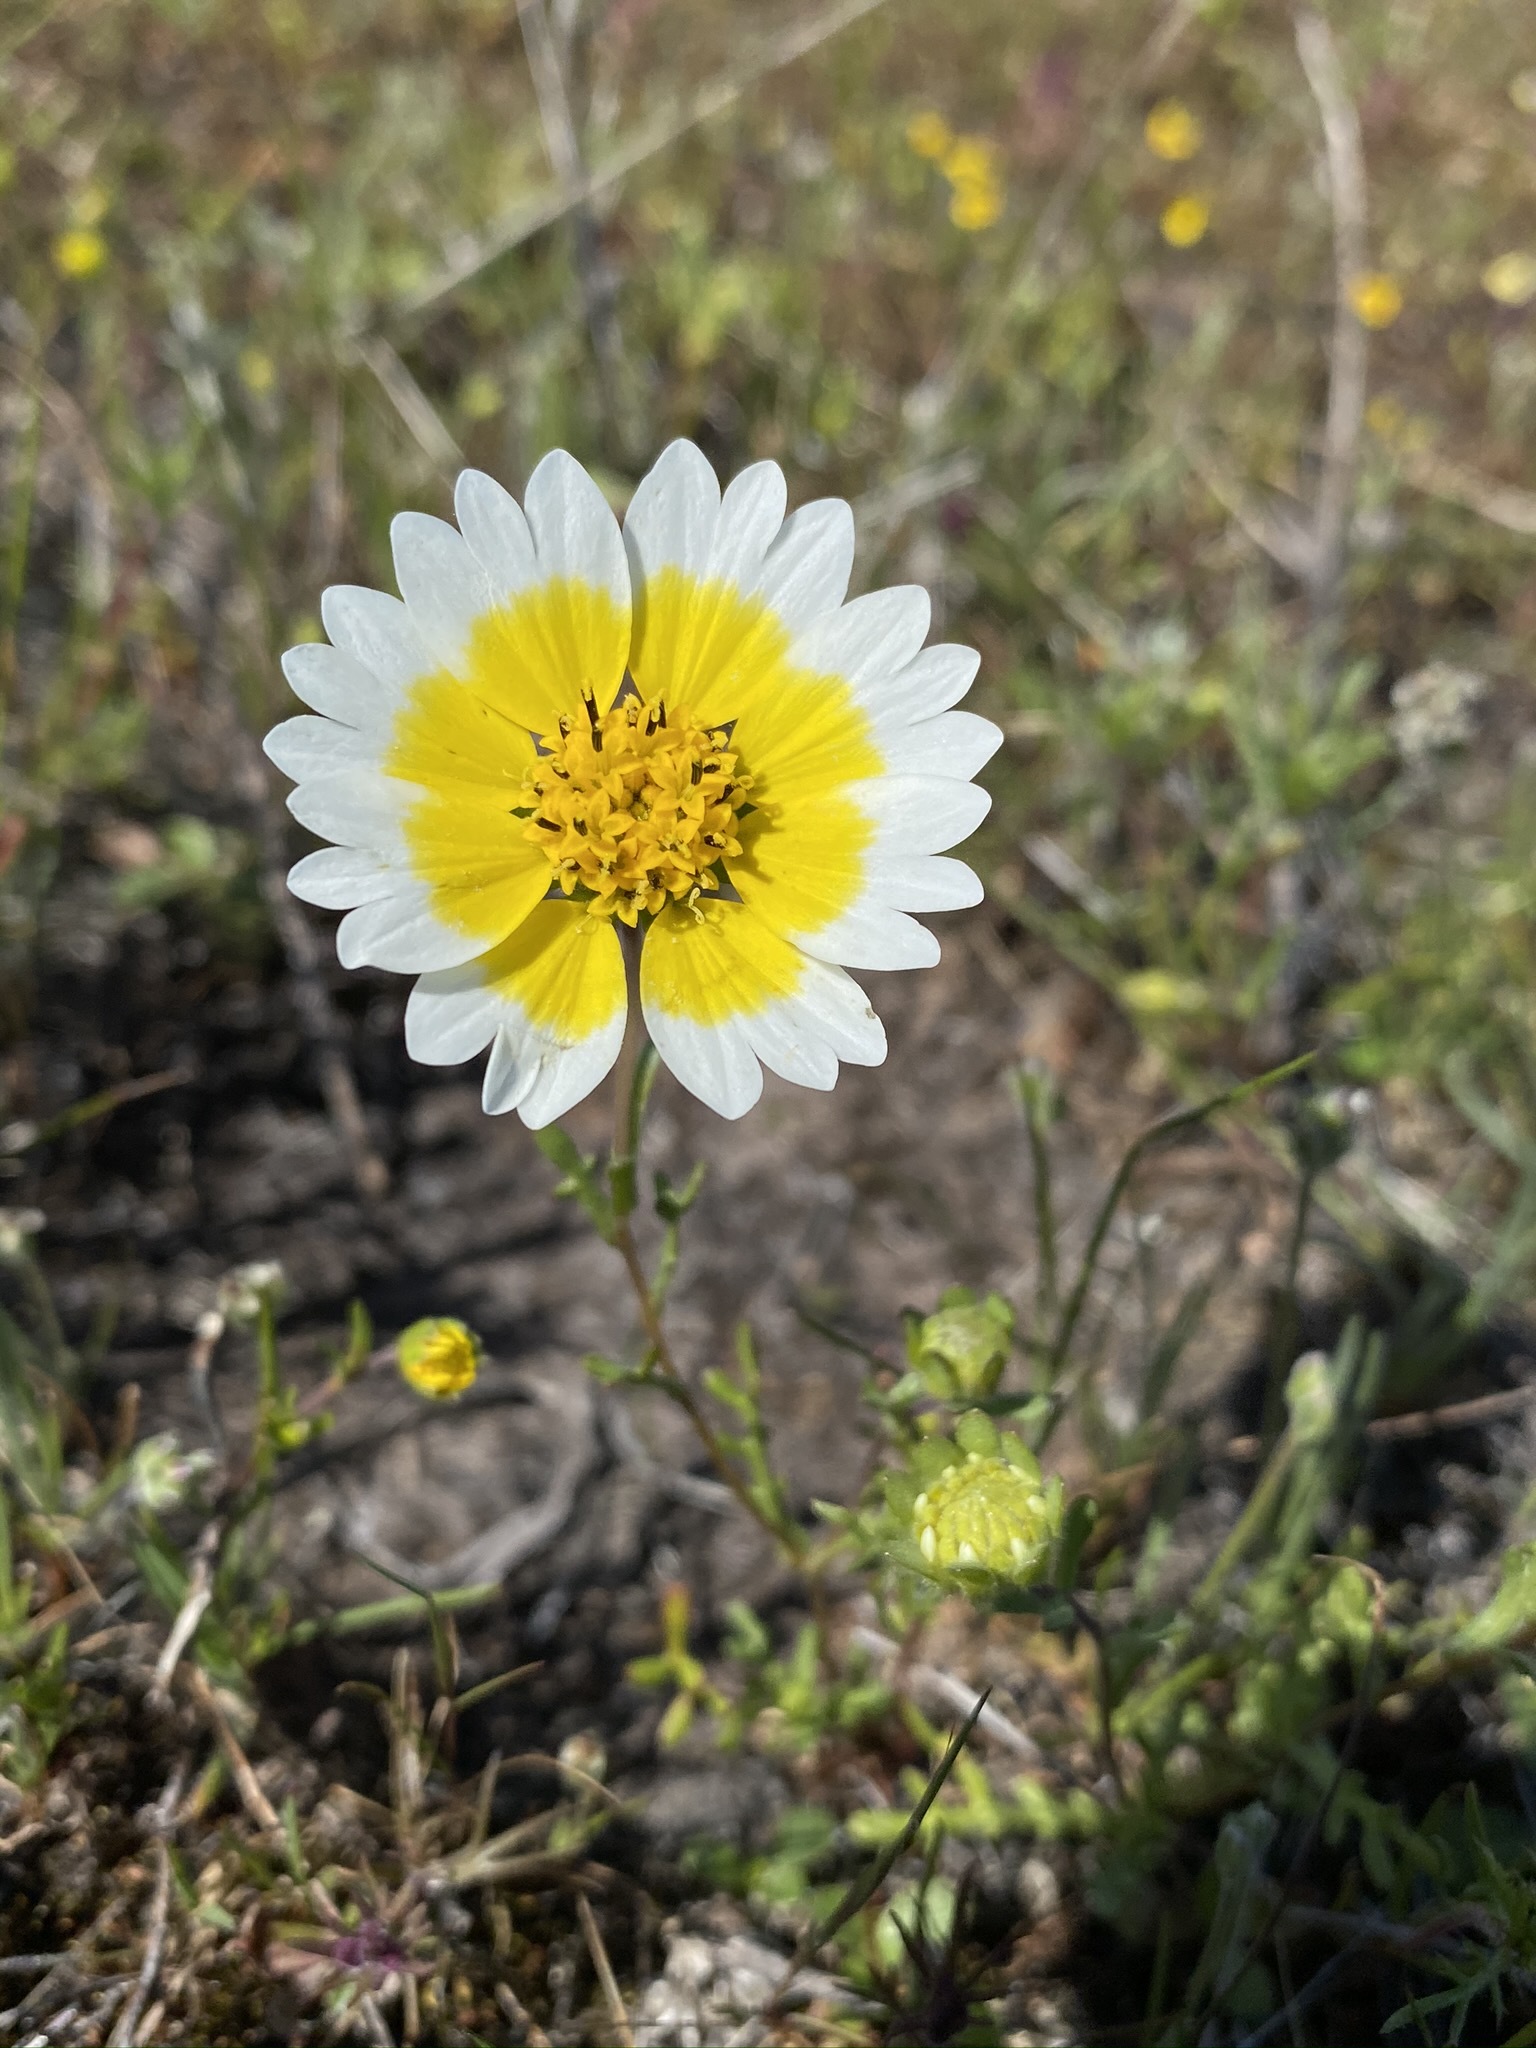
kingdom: Plantae
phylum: Tracheophyta
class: Magnoliopsida
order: Asterales
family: Asteraceae
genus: Layia
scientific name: Layia fremontii
